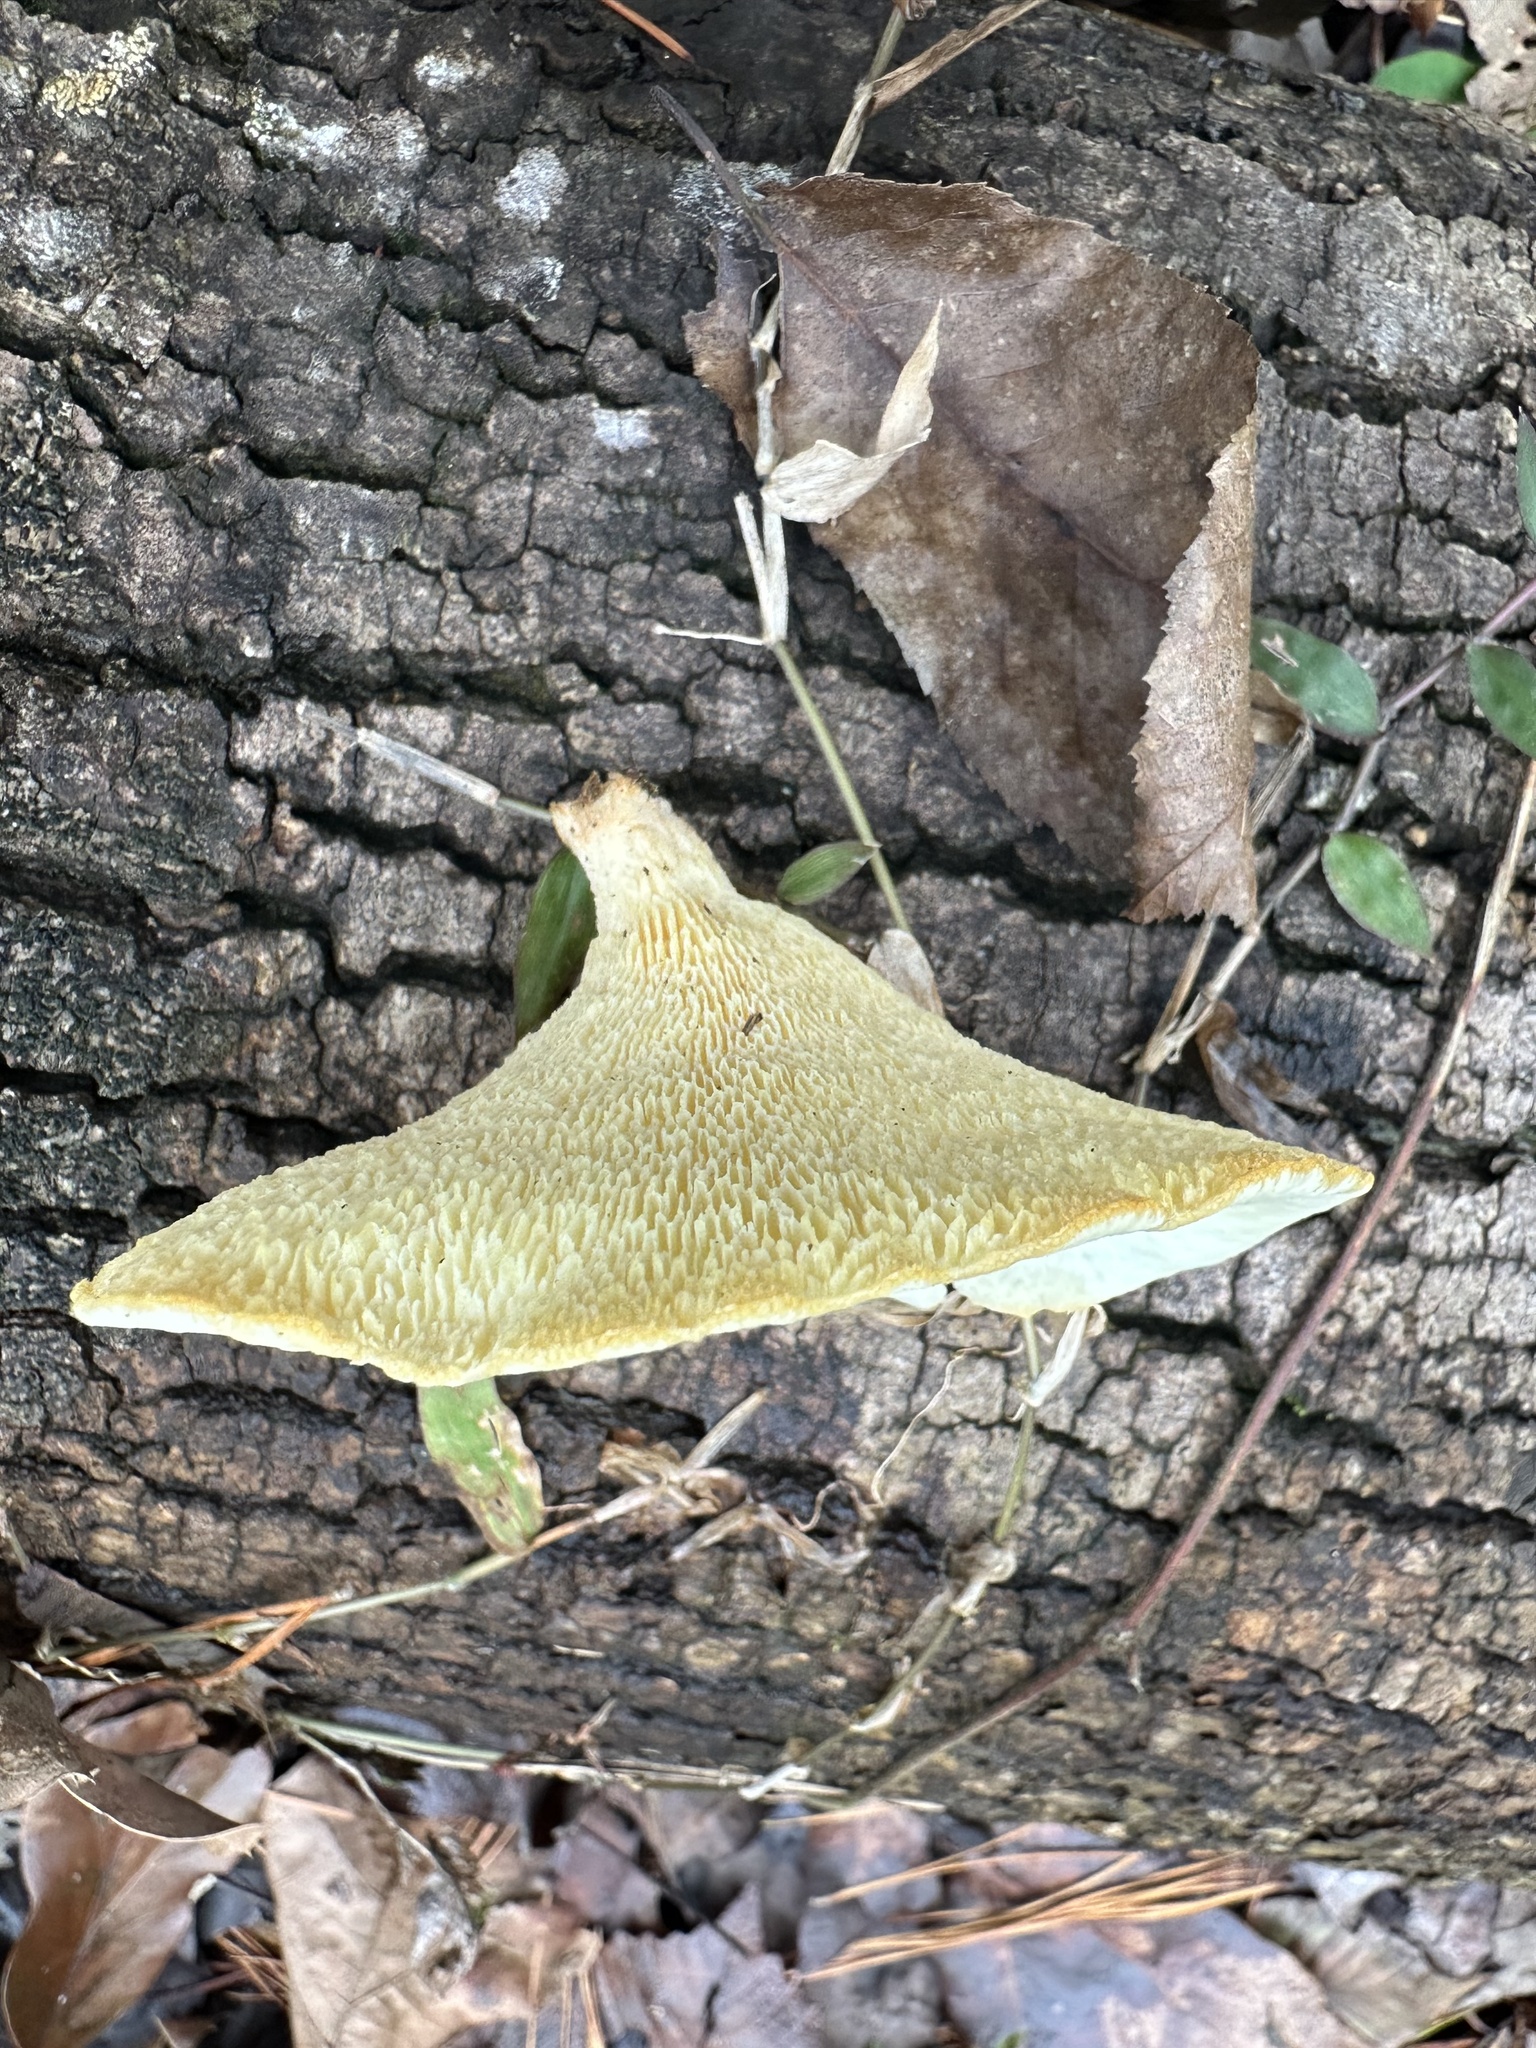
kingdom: Fungi
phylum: Basidiomycota
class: Agaricomycetes
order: Polyporales
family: Polyporaceae
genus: Favolus
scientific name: Favolus tenuiculus
